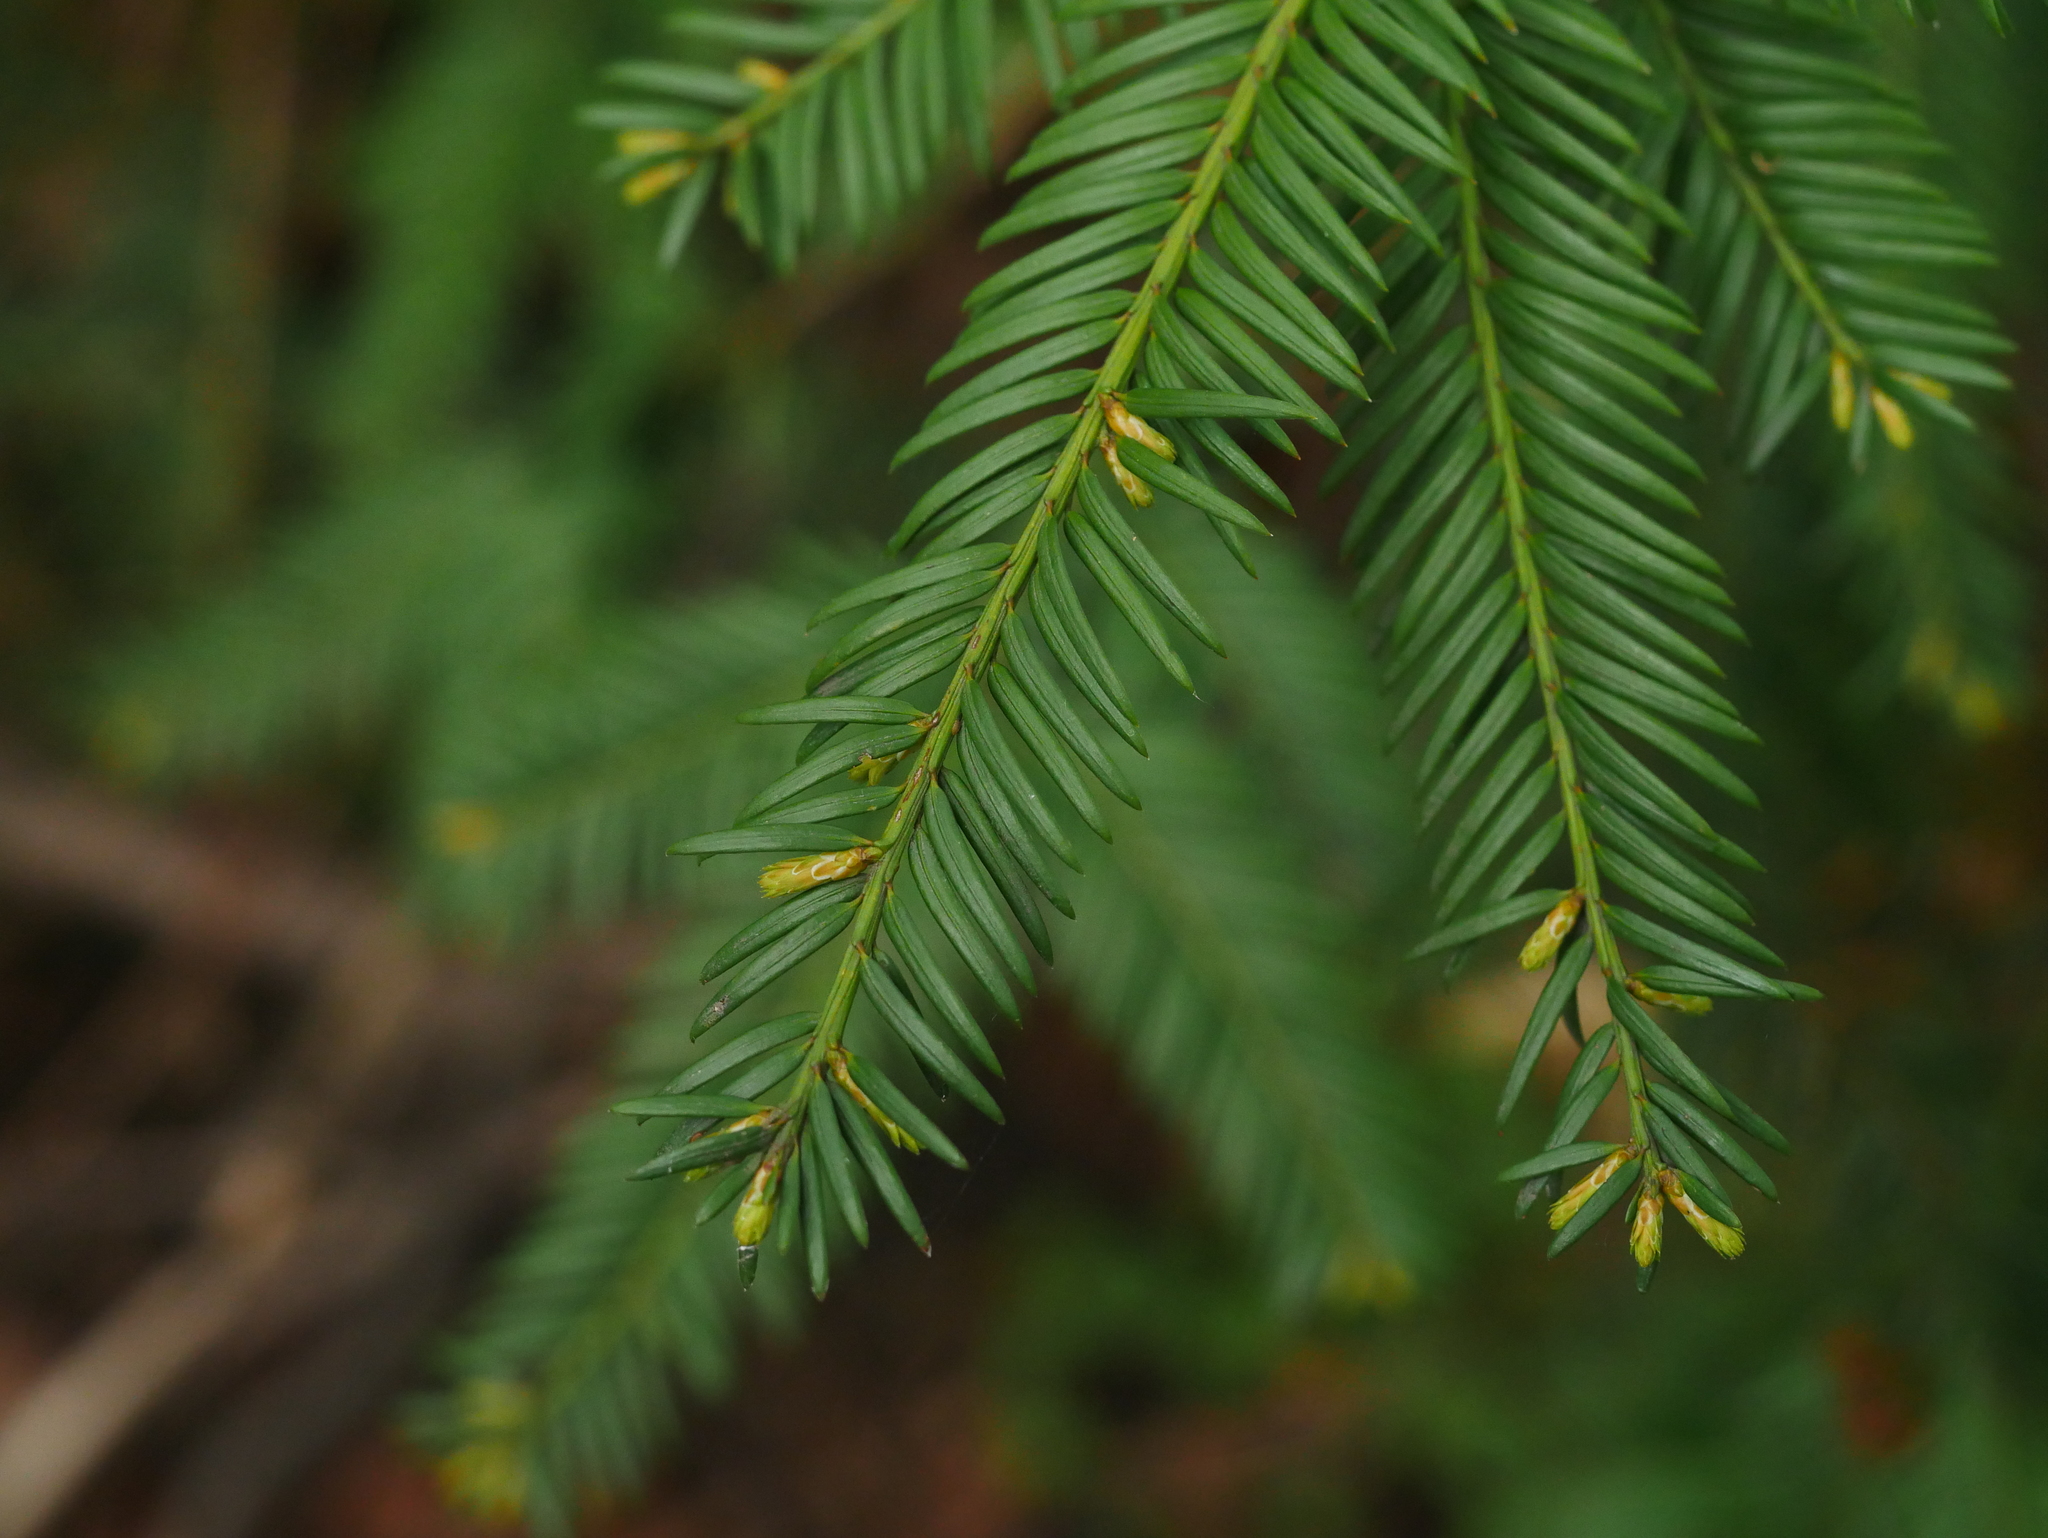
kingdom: Plantae
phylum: Tracheophyta
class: Pinopsida
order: Pinales
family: Taxaceae
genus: Taxus
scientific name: Taxus baccata
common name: Yew
